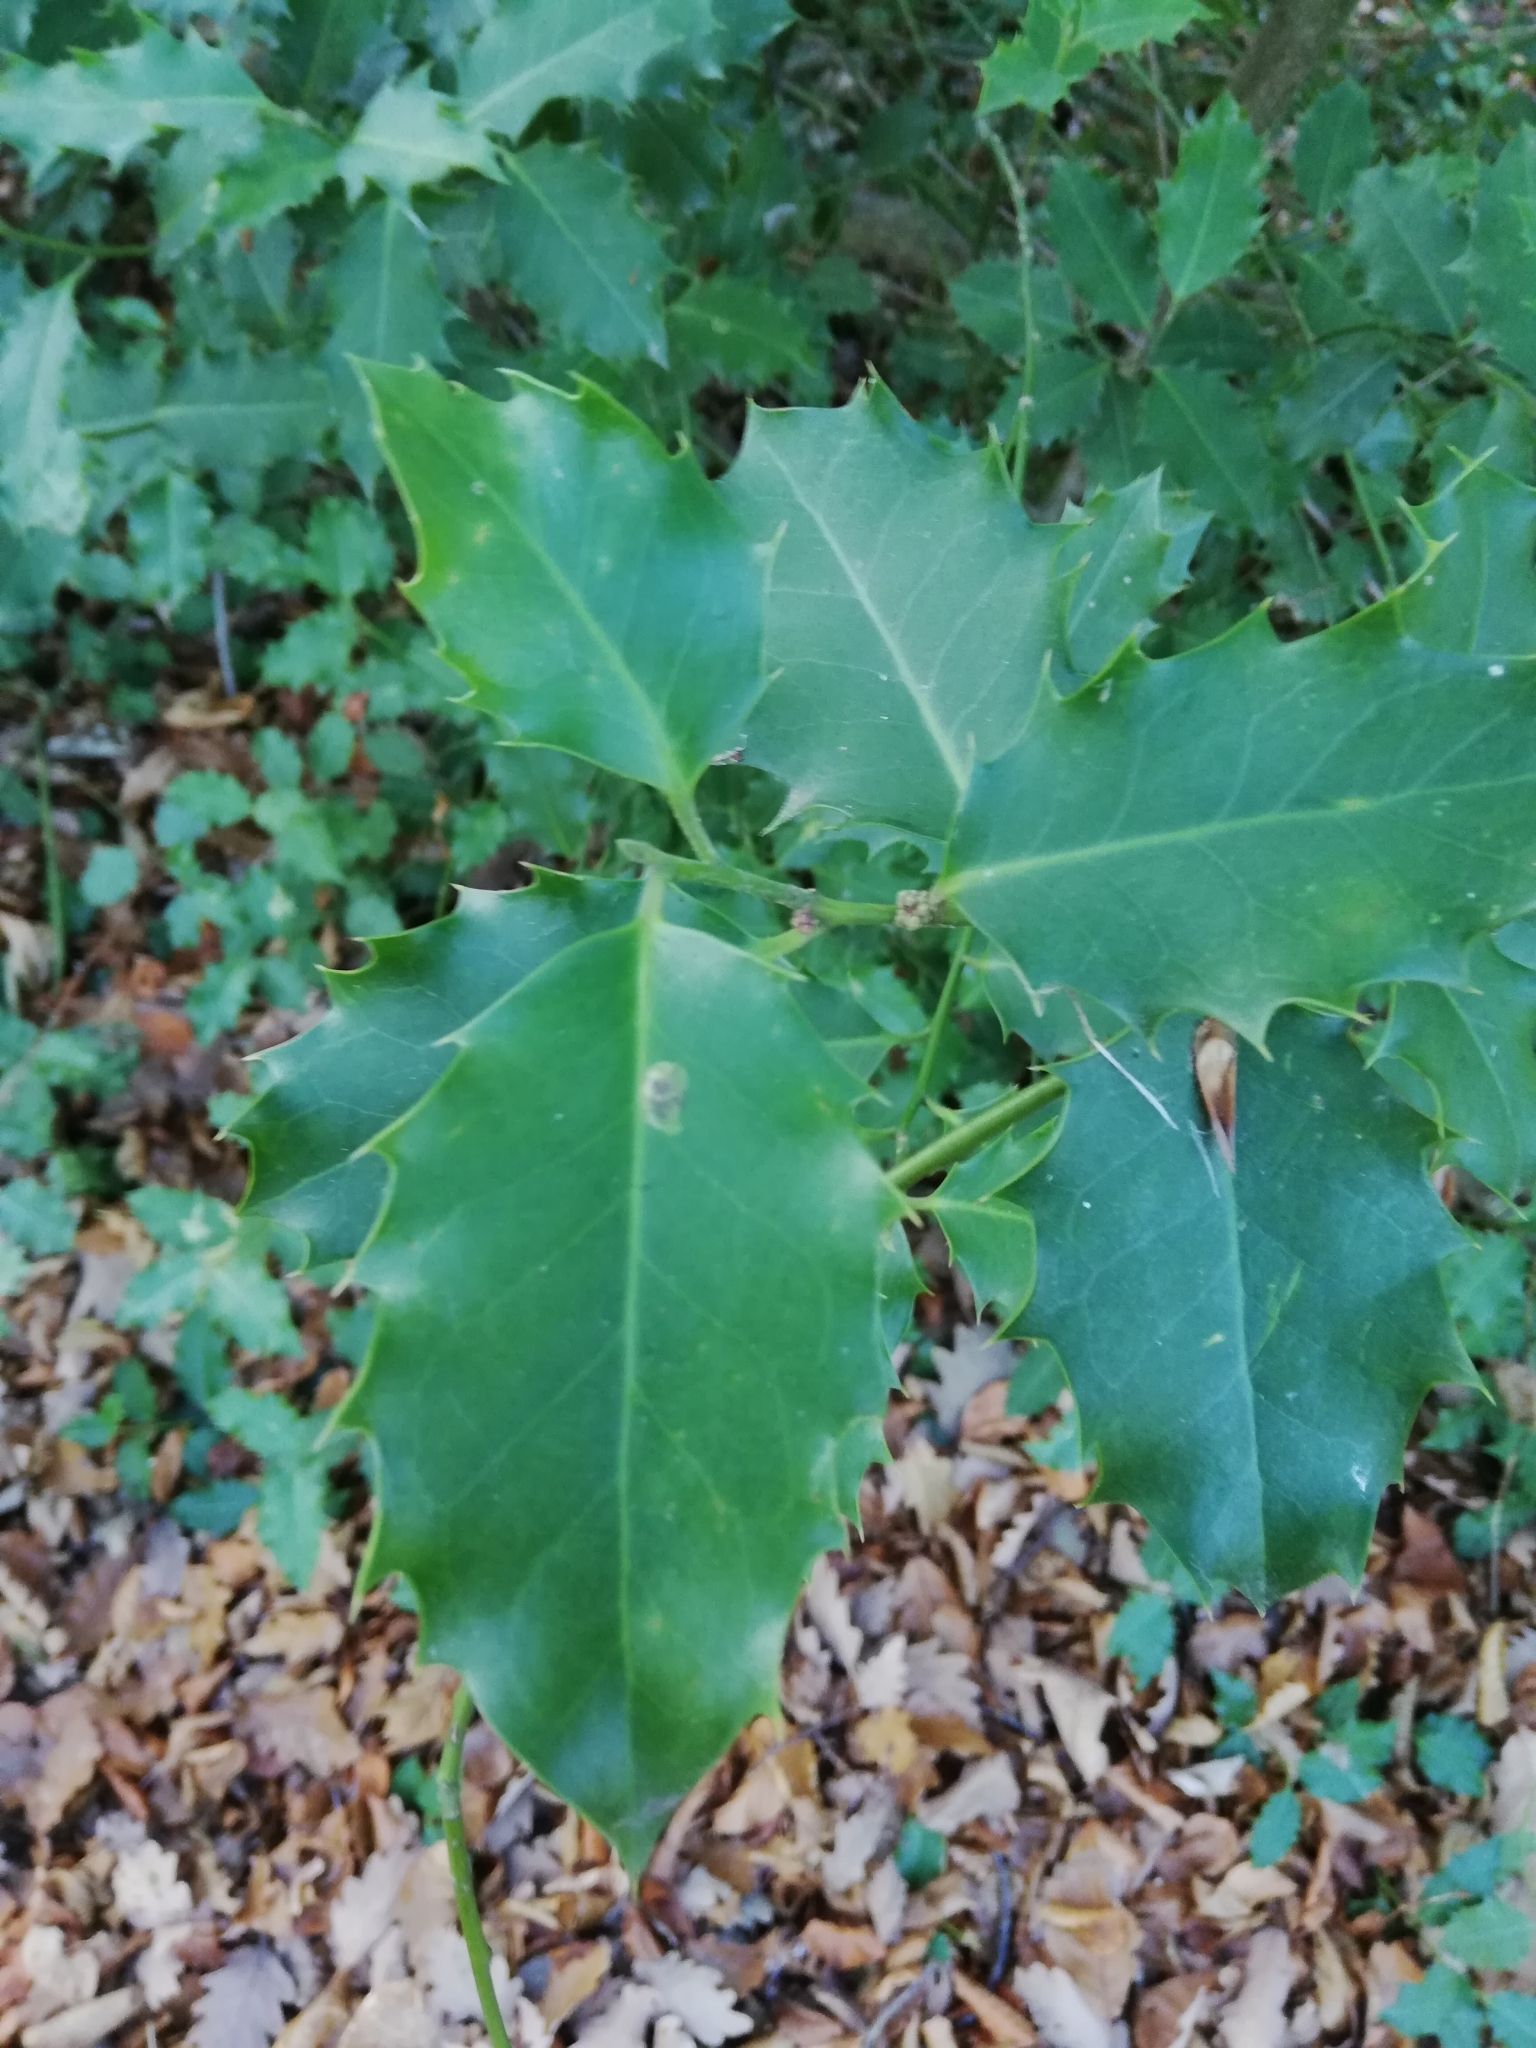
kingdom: Plantae
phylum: Tracheophyta
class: Magnoliopsida
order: Aquifoliales
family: Aquifoliaceae
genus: Ilex
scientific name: Ilex aquifolium
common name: English holly
